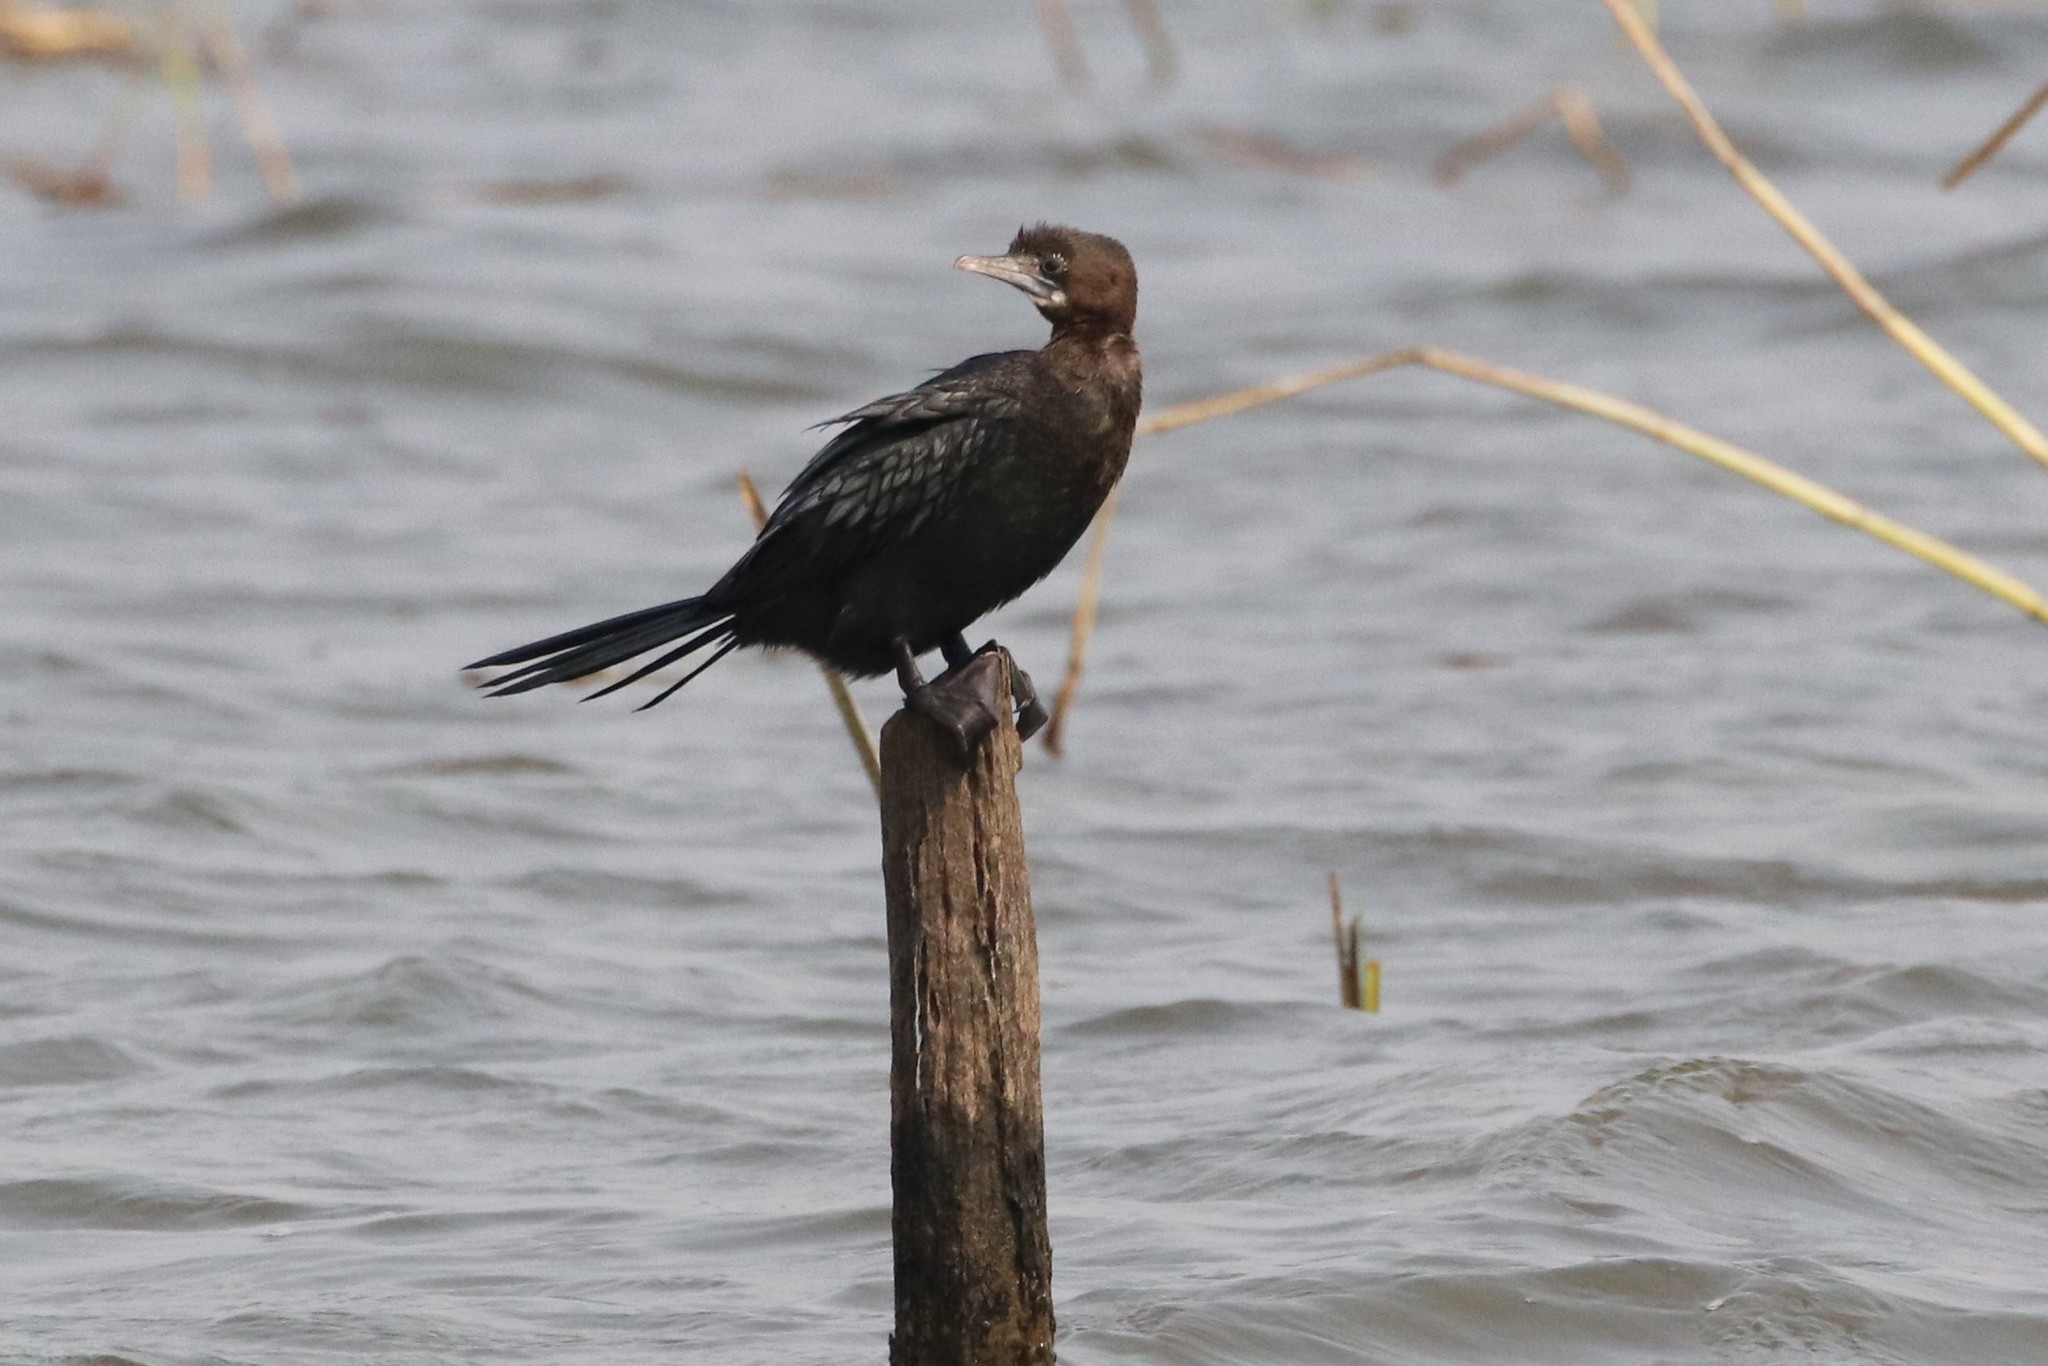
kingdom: Animalia
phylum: Chordata
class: Aves
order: Suliformes
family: Phalacrocoracidae
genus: Microcarbo
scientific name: Microcarbo niger
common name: Little cormorant
